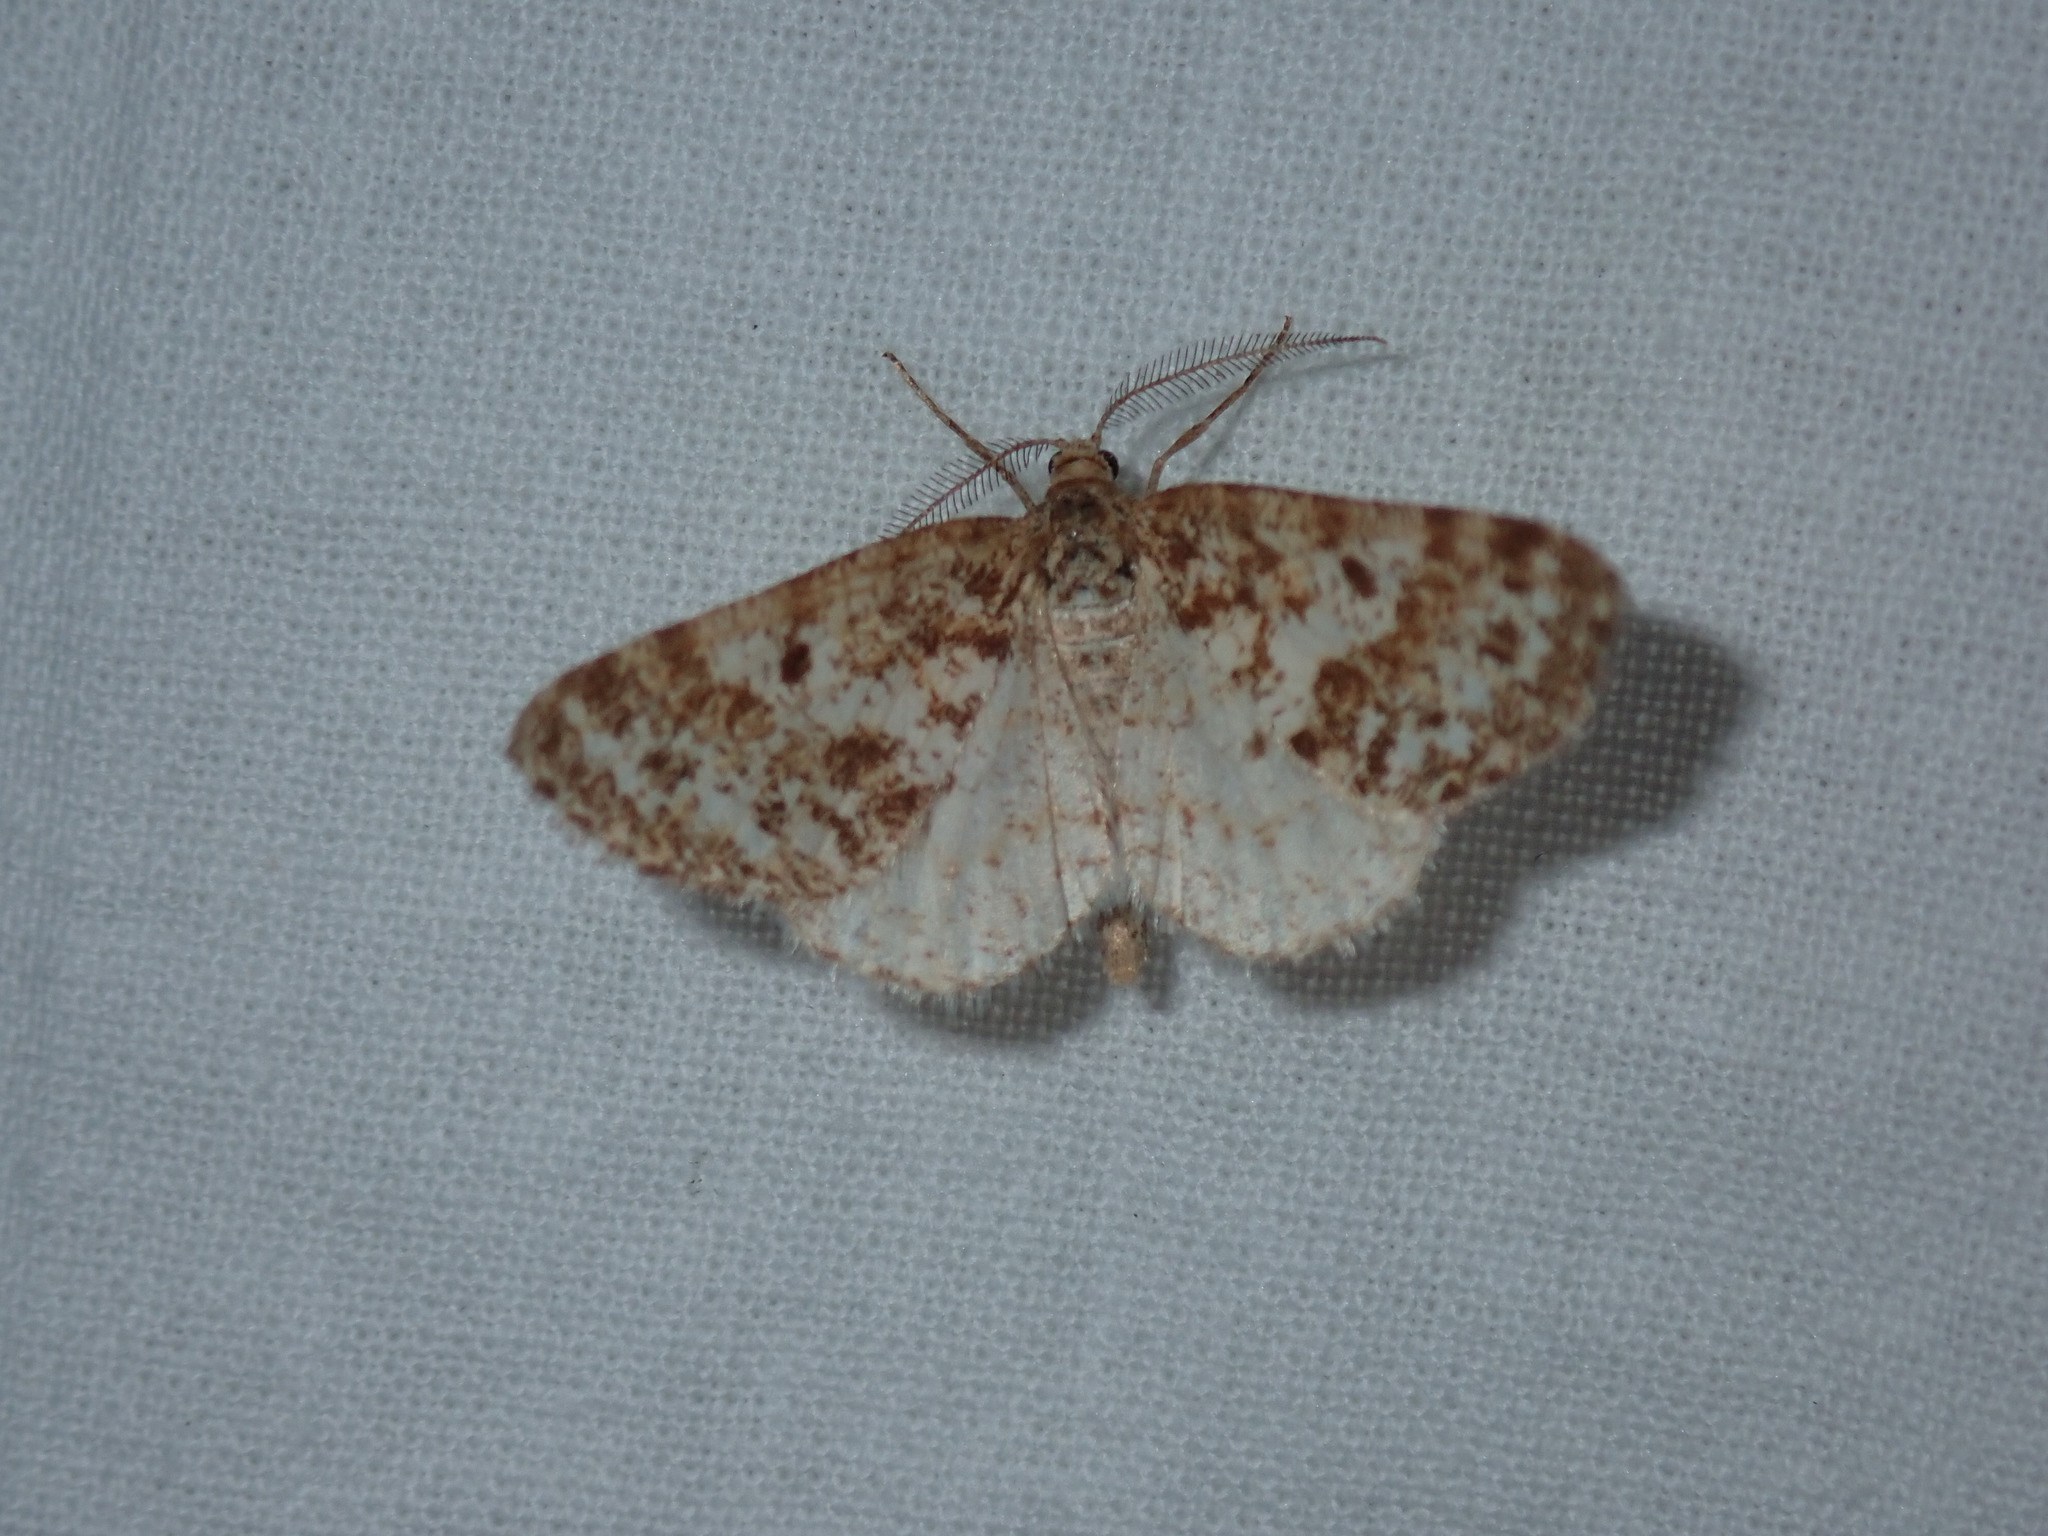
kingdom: Animalia
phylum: Arthropoda
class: Insecta
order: Lepidoptera
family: Geometridae
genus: Eufidonia
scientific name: Eufidonia notataria
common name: Powder moth
